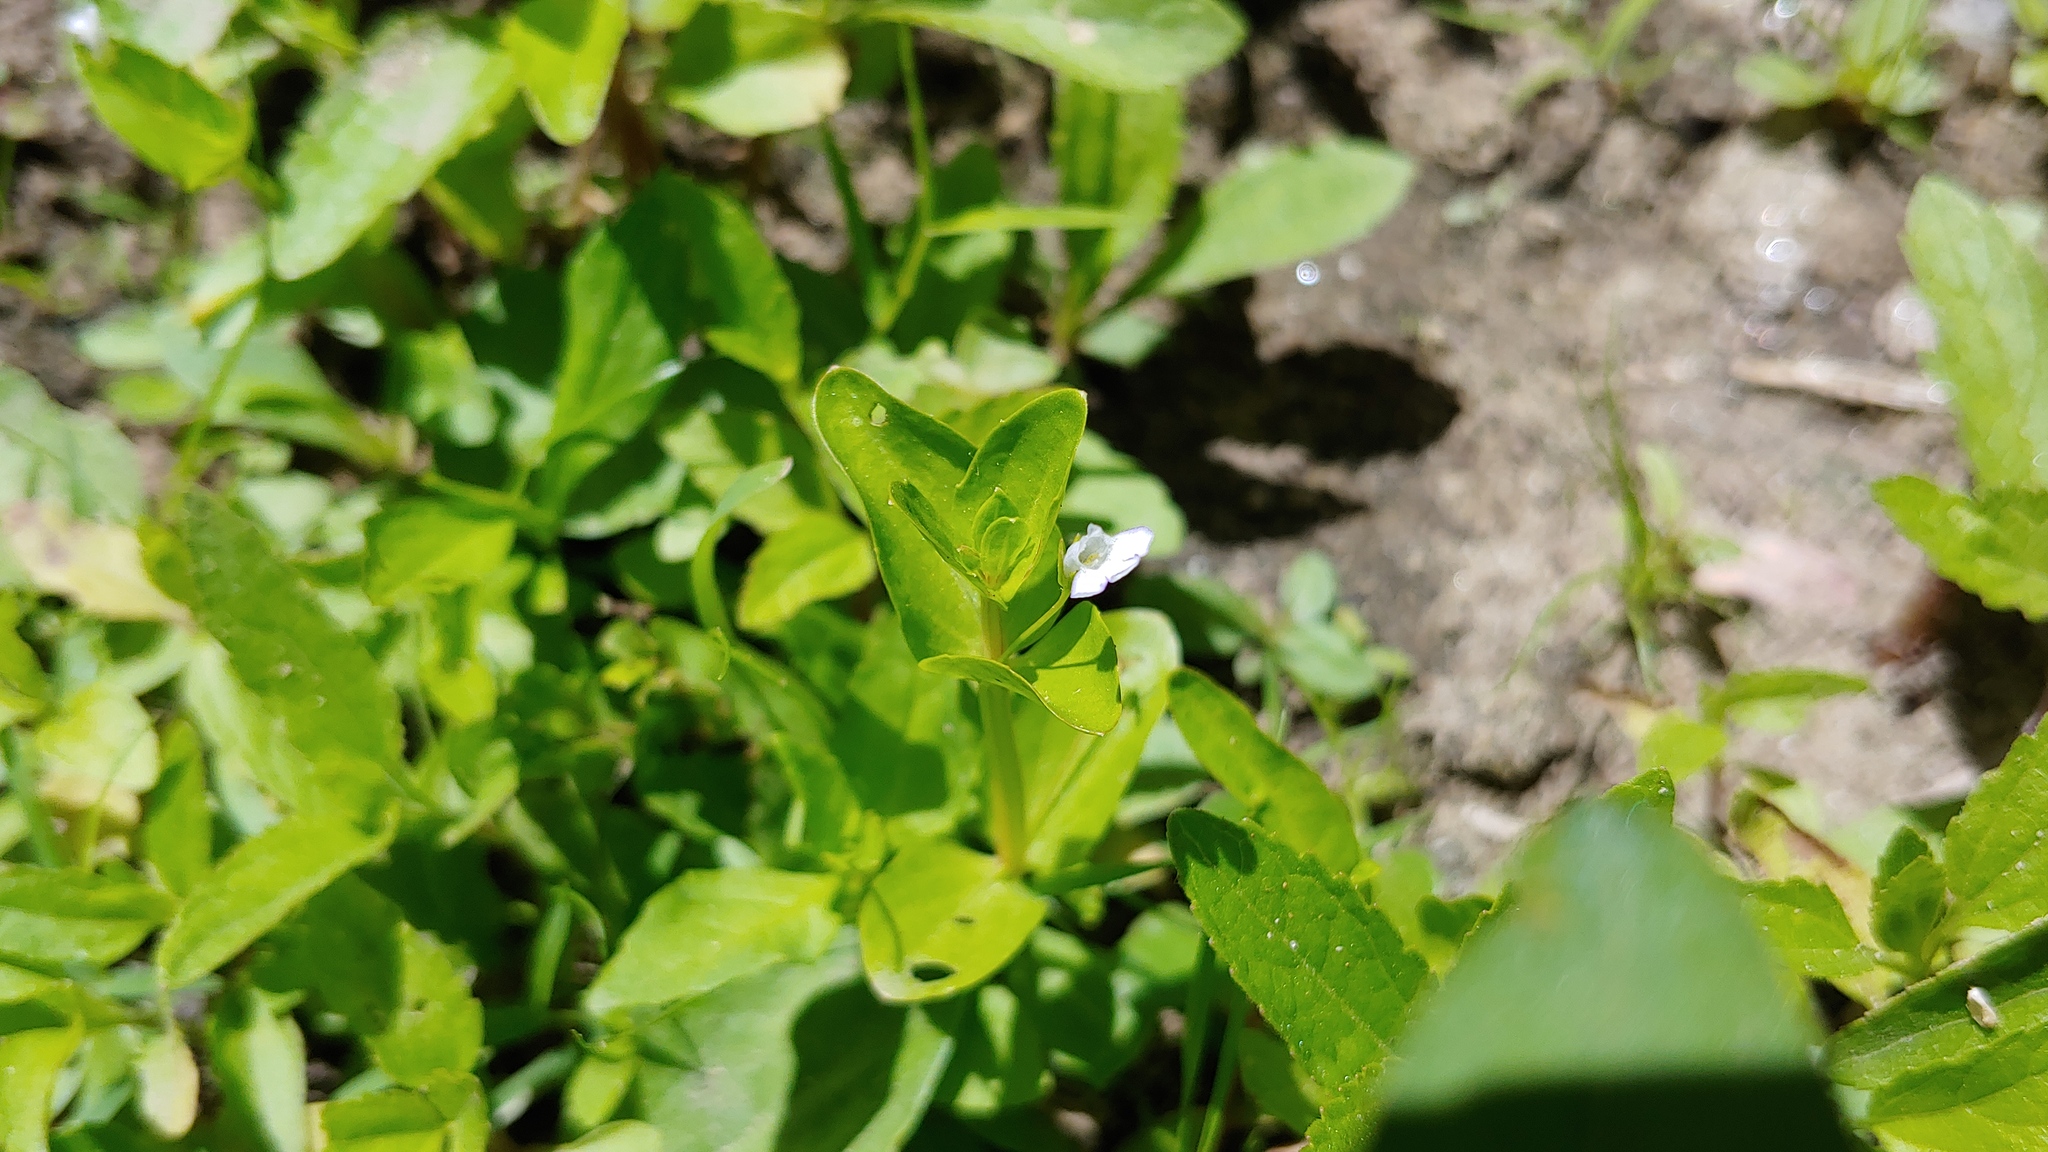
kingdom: Plantae
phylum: Tracheophyta
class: Magnoliopsida
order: Lamiales
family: Linderniaceae
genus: Lindernia
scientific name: Lindernia dubia
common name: Annual false pimpernel
